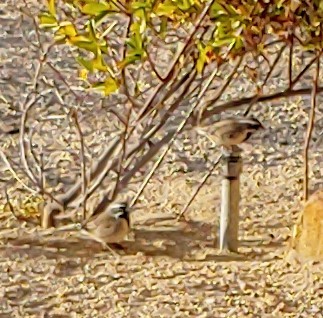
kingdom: Animalia
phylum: Chordata
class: Aves
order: Passeriformes
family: Passerellidae
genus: Amphispiza
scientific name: Amphispiza bilineata
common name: Black-throated sparrow
